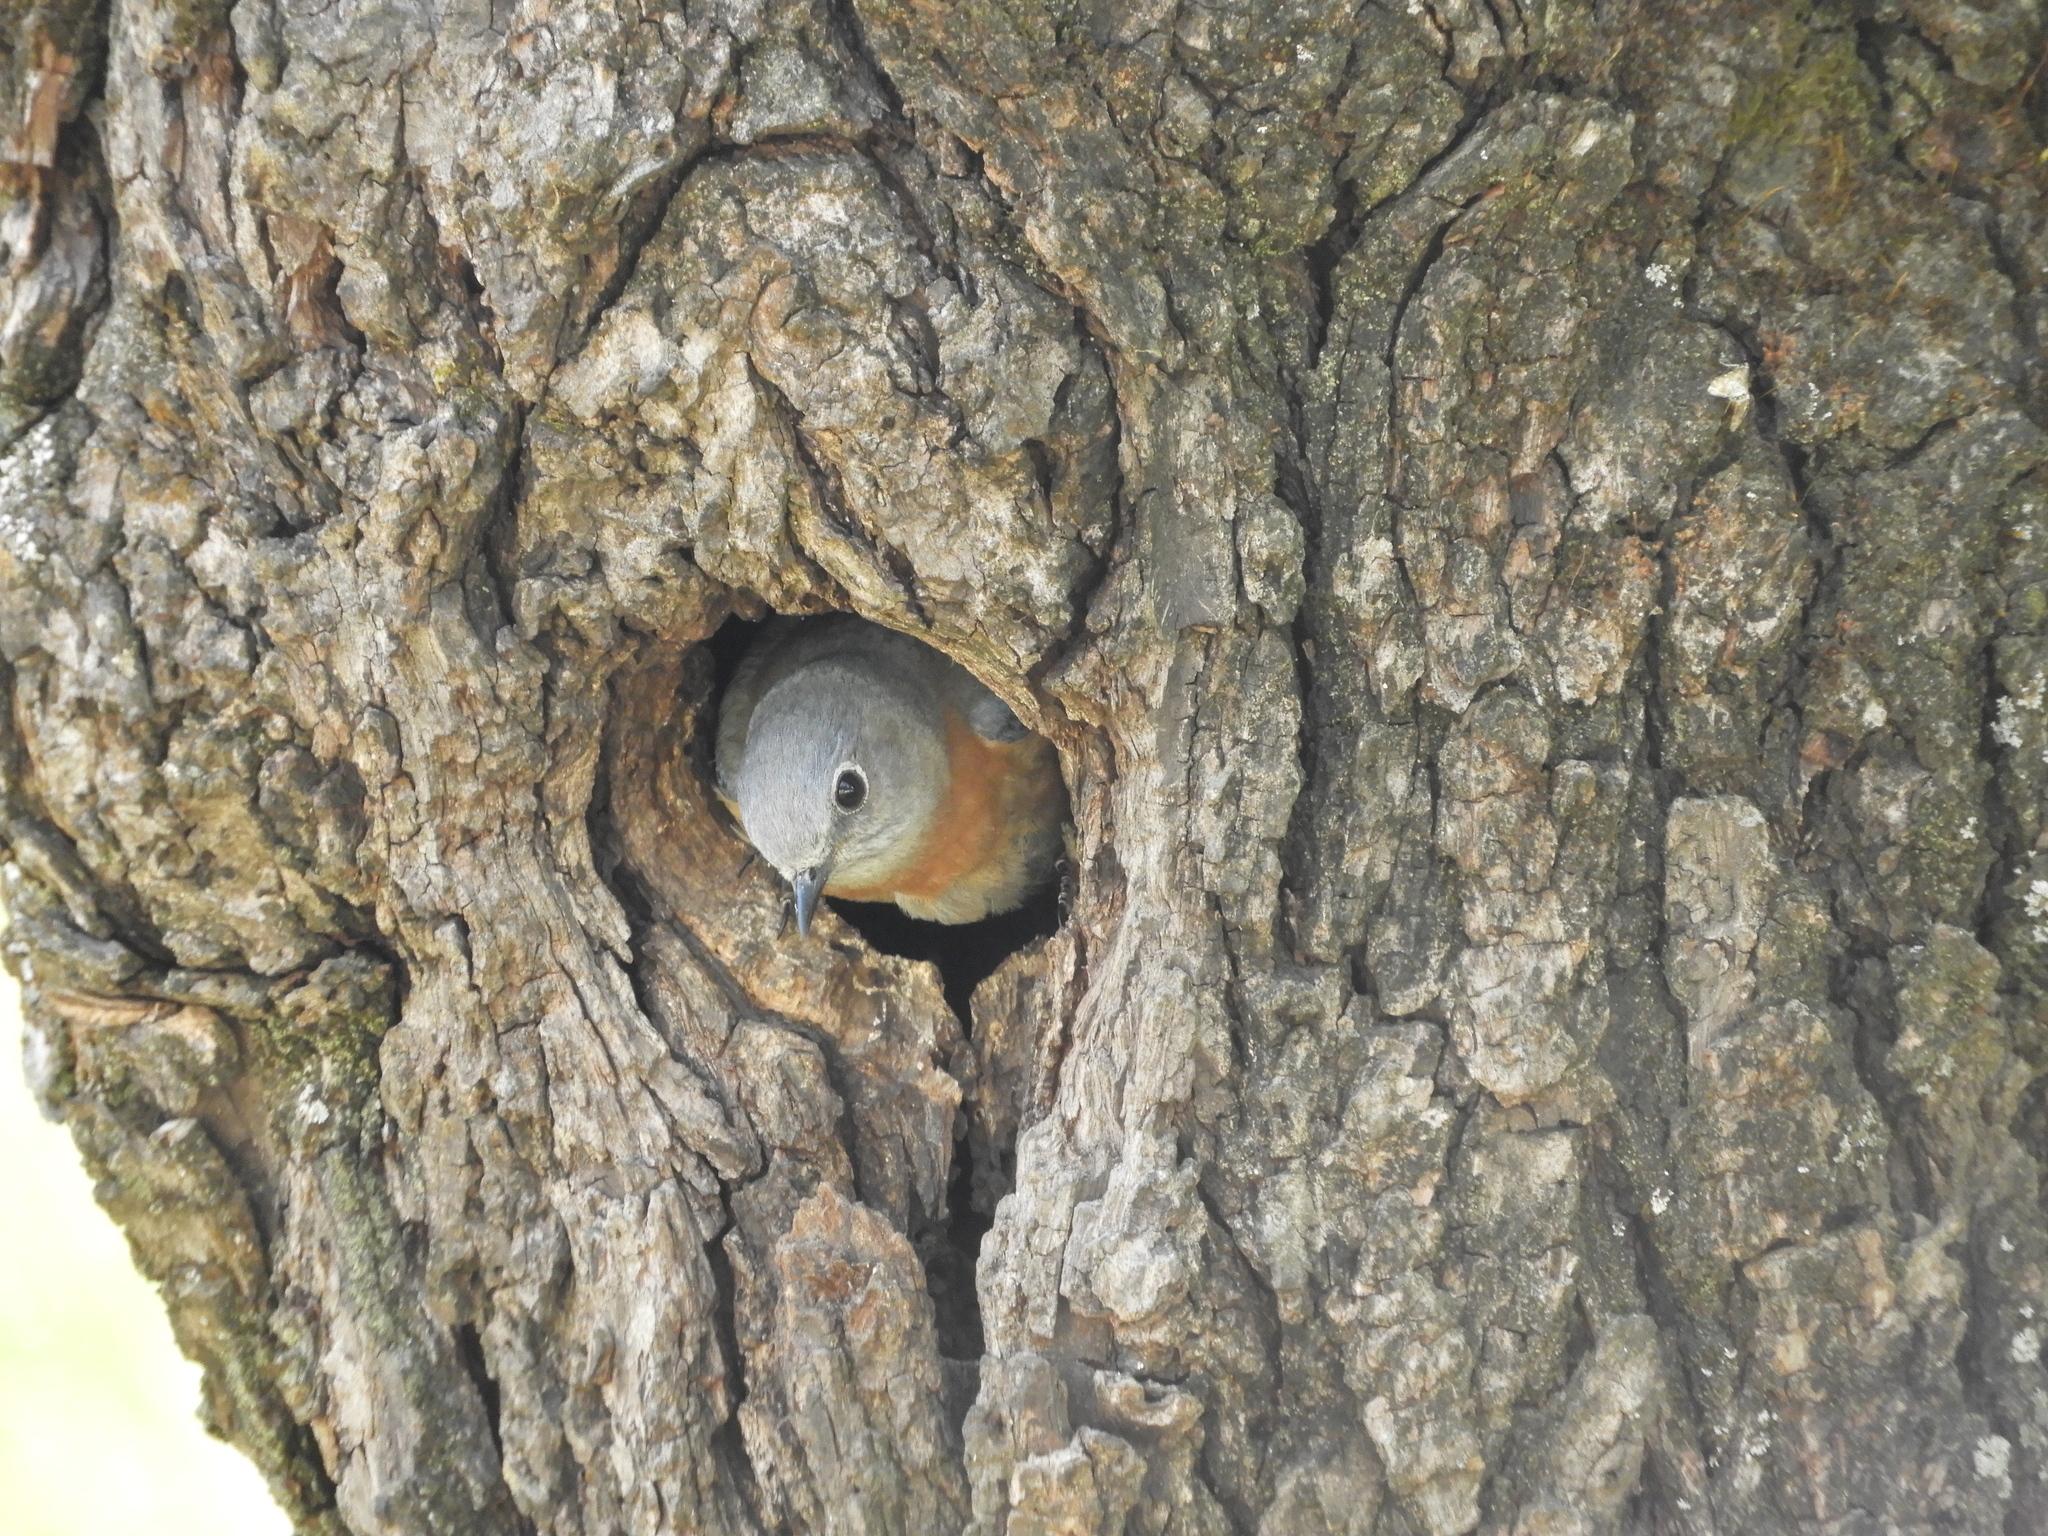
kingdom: Animalia
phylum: Chordata
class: Aves
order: Passeriformes
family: Turdidae
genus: Sialia
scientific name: Sialia mexicana
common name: Western bluebird
